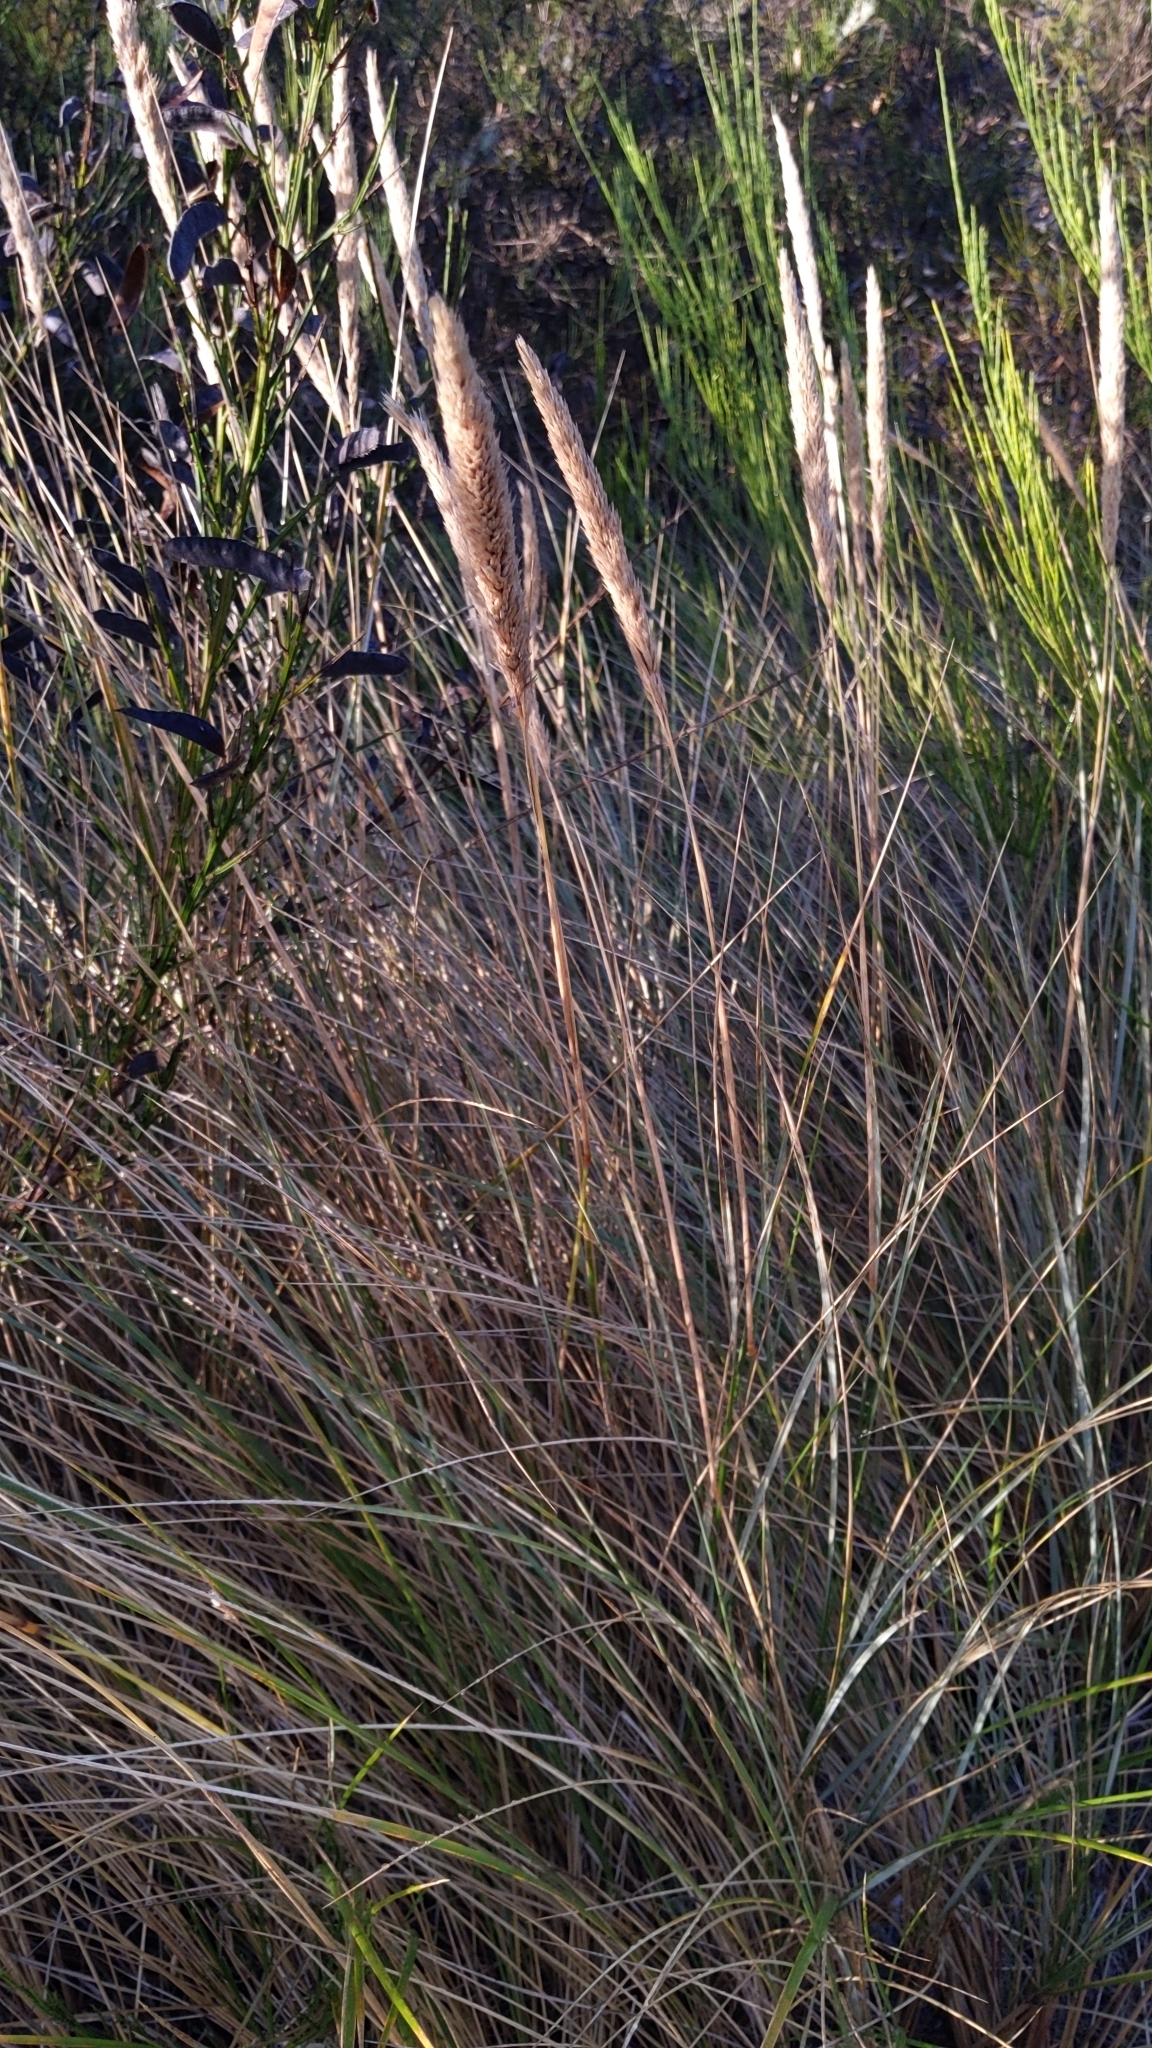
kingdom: Plantae
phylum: Tracheophyta
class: Liliopsida
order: Poales
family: Poaceae
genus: Calamagrostis
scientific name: Calamagrostis arenaria
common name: European beachgrass
